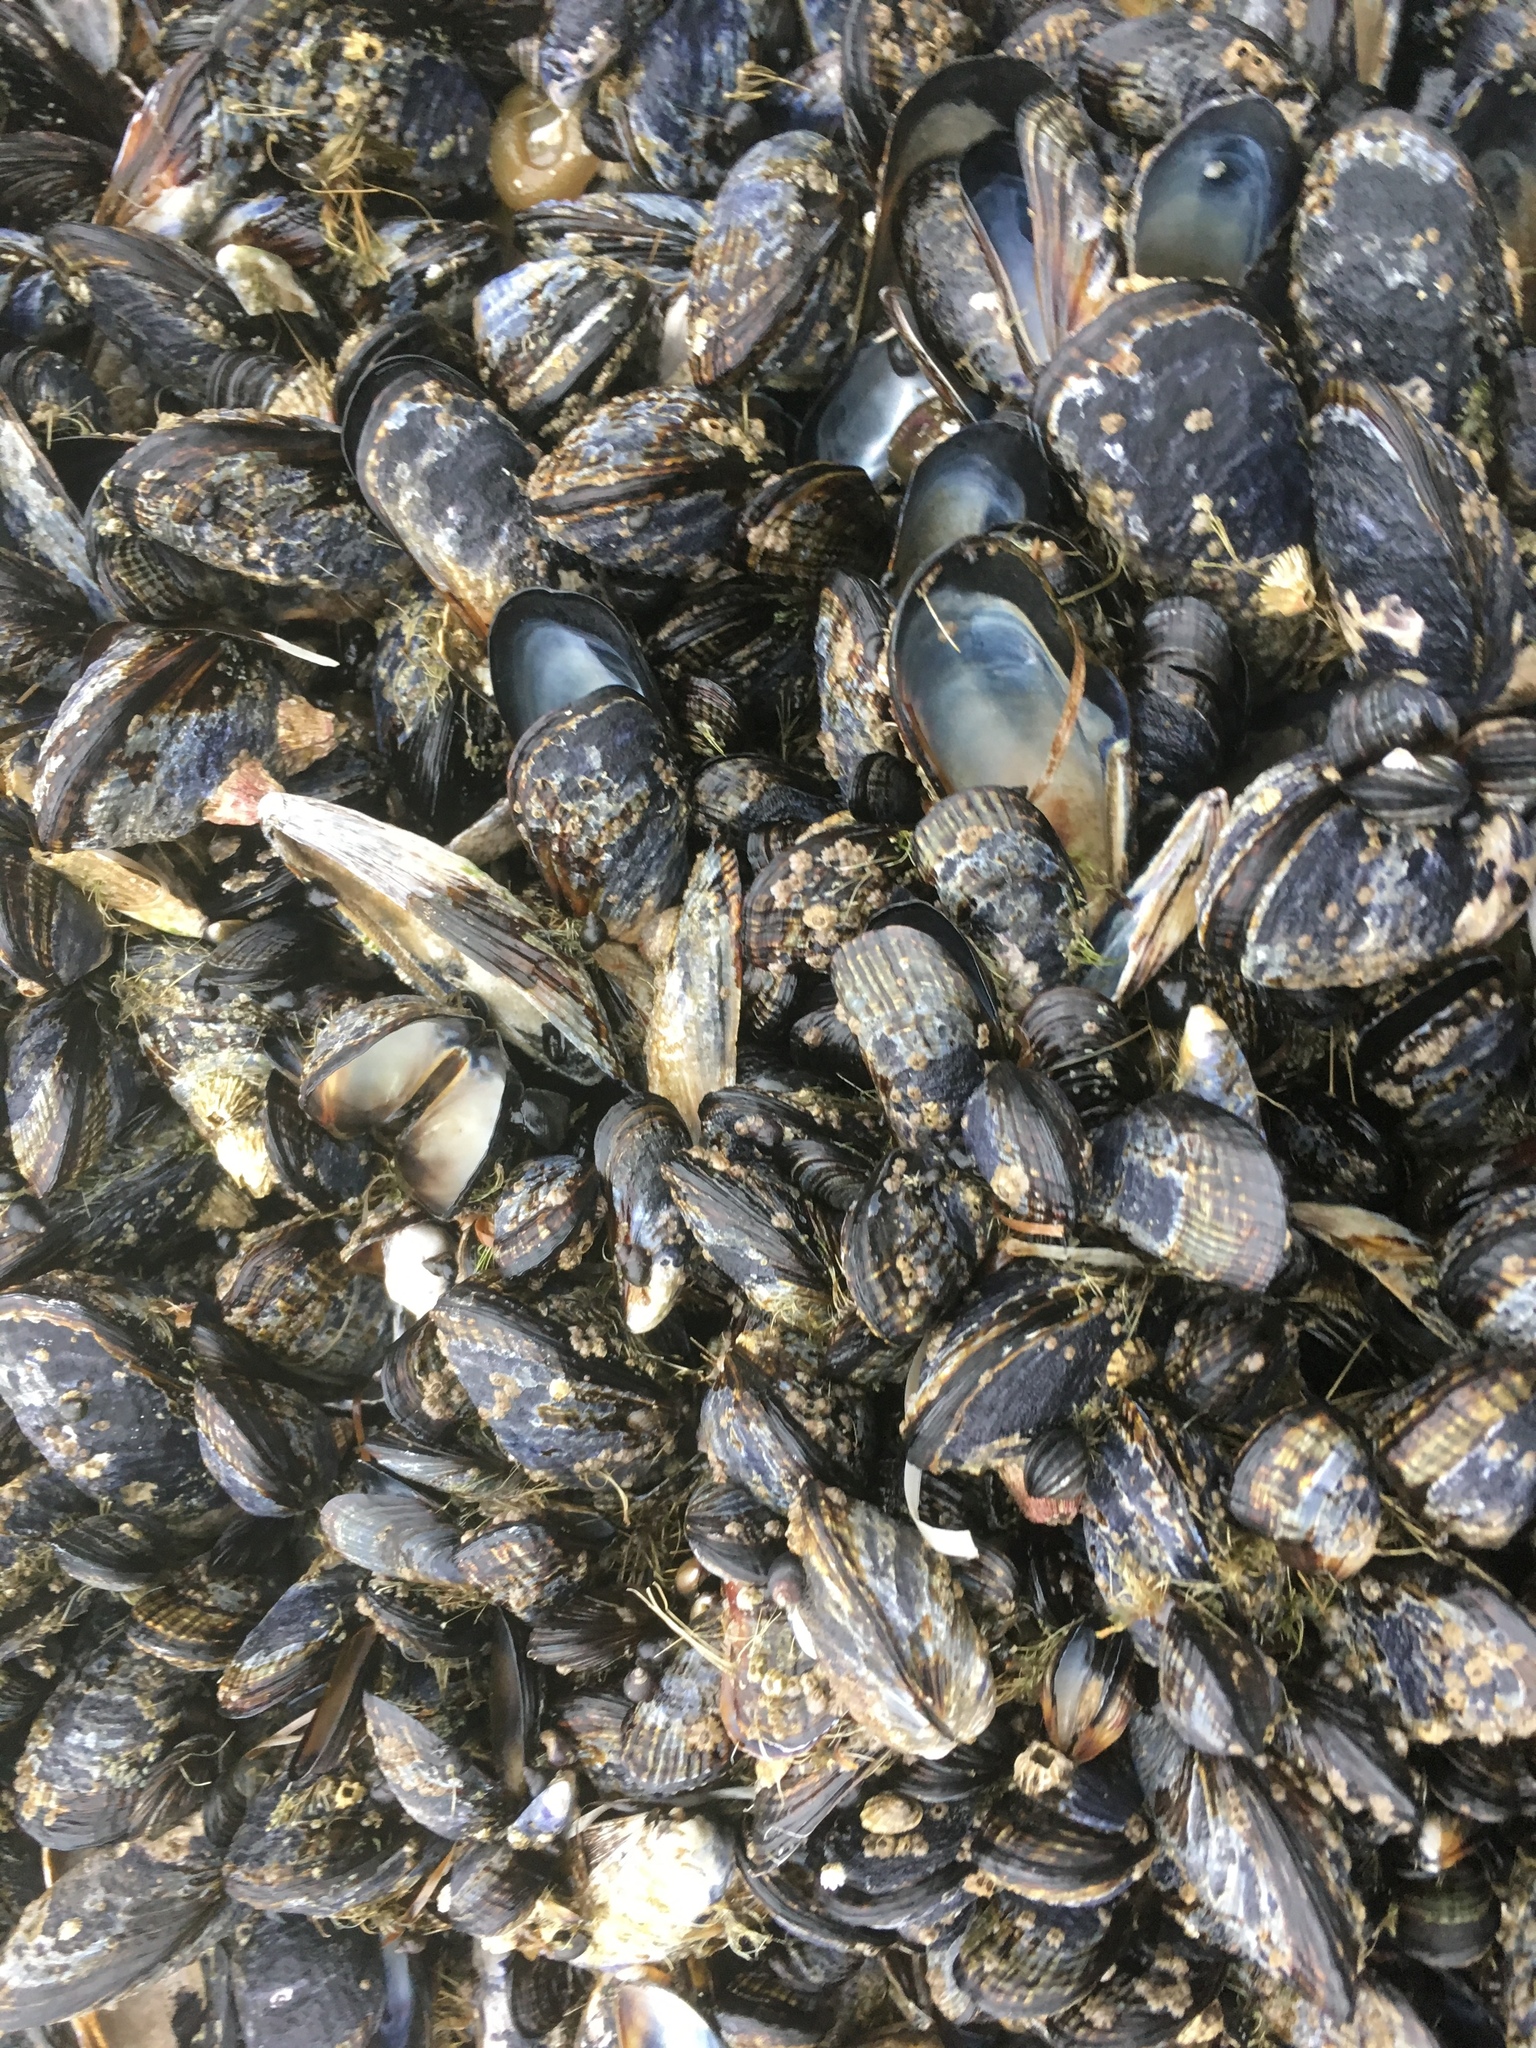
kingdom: Animalia
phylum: Mollusca
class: Bivalvia
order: Mytilida
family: Mytilidae
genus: Mytilus
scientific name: Mytilus californianus
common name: California mussel
